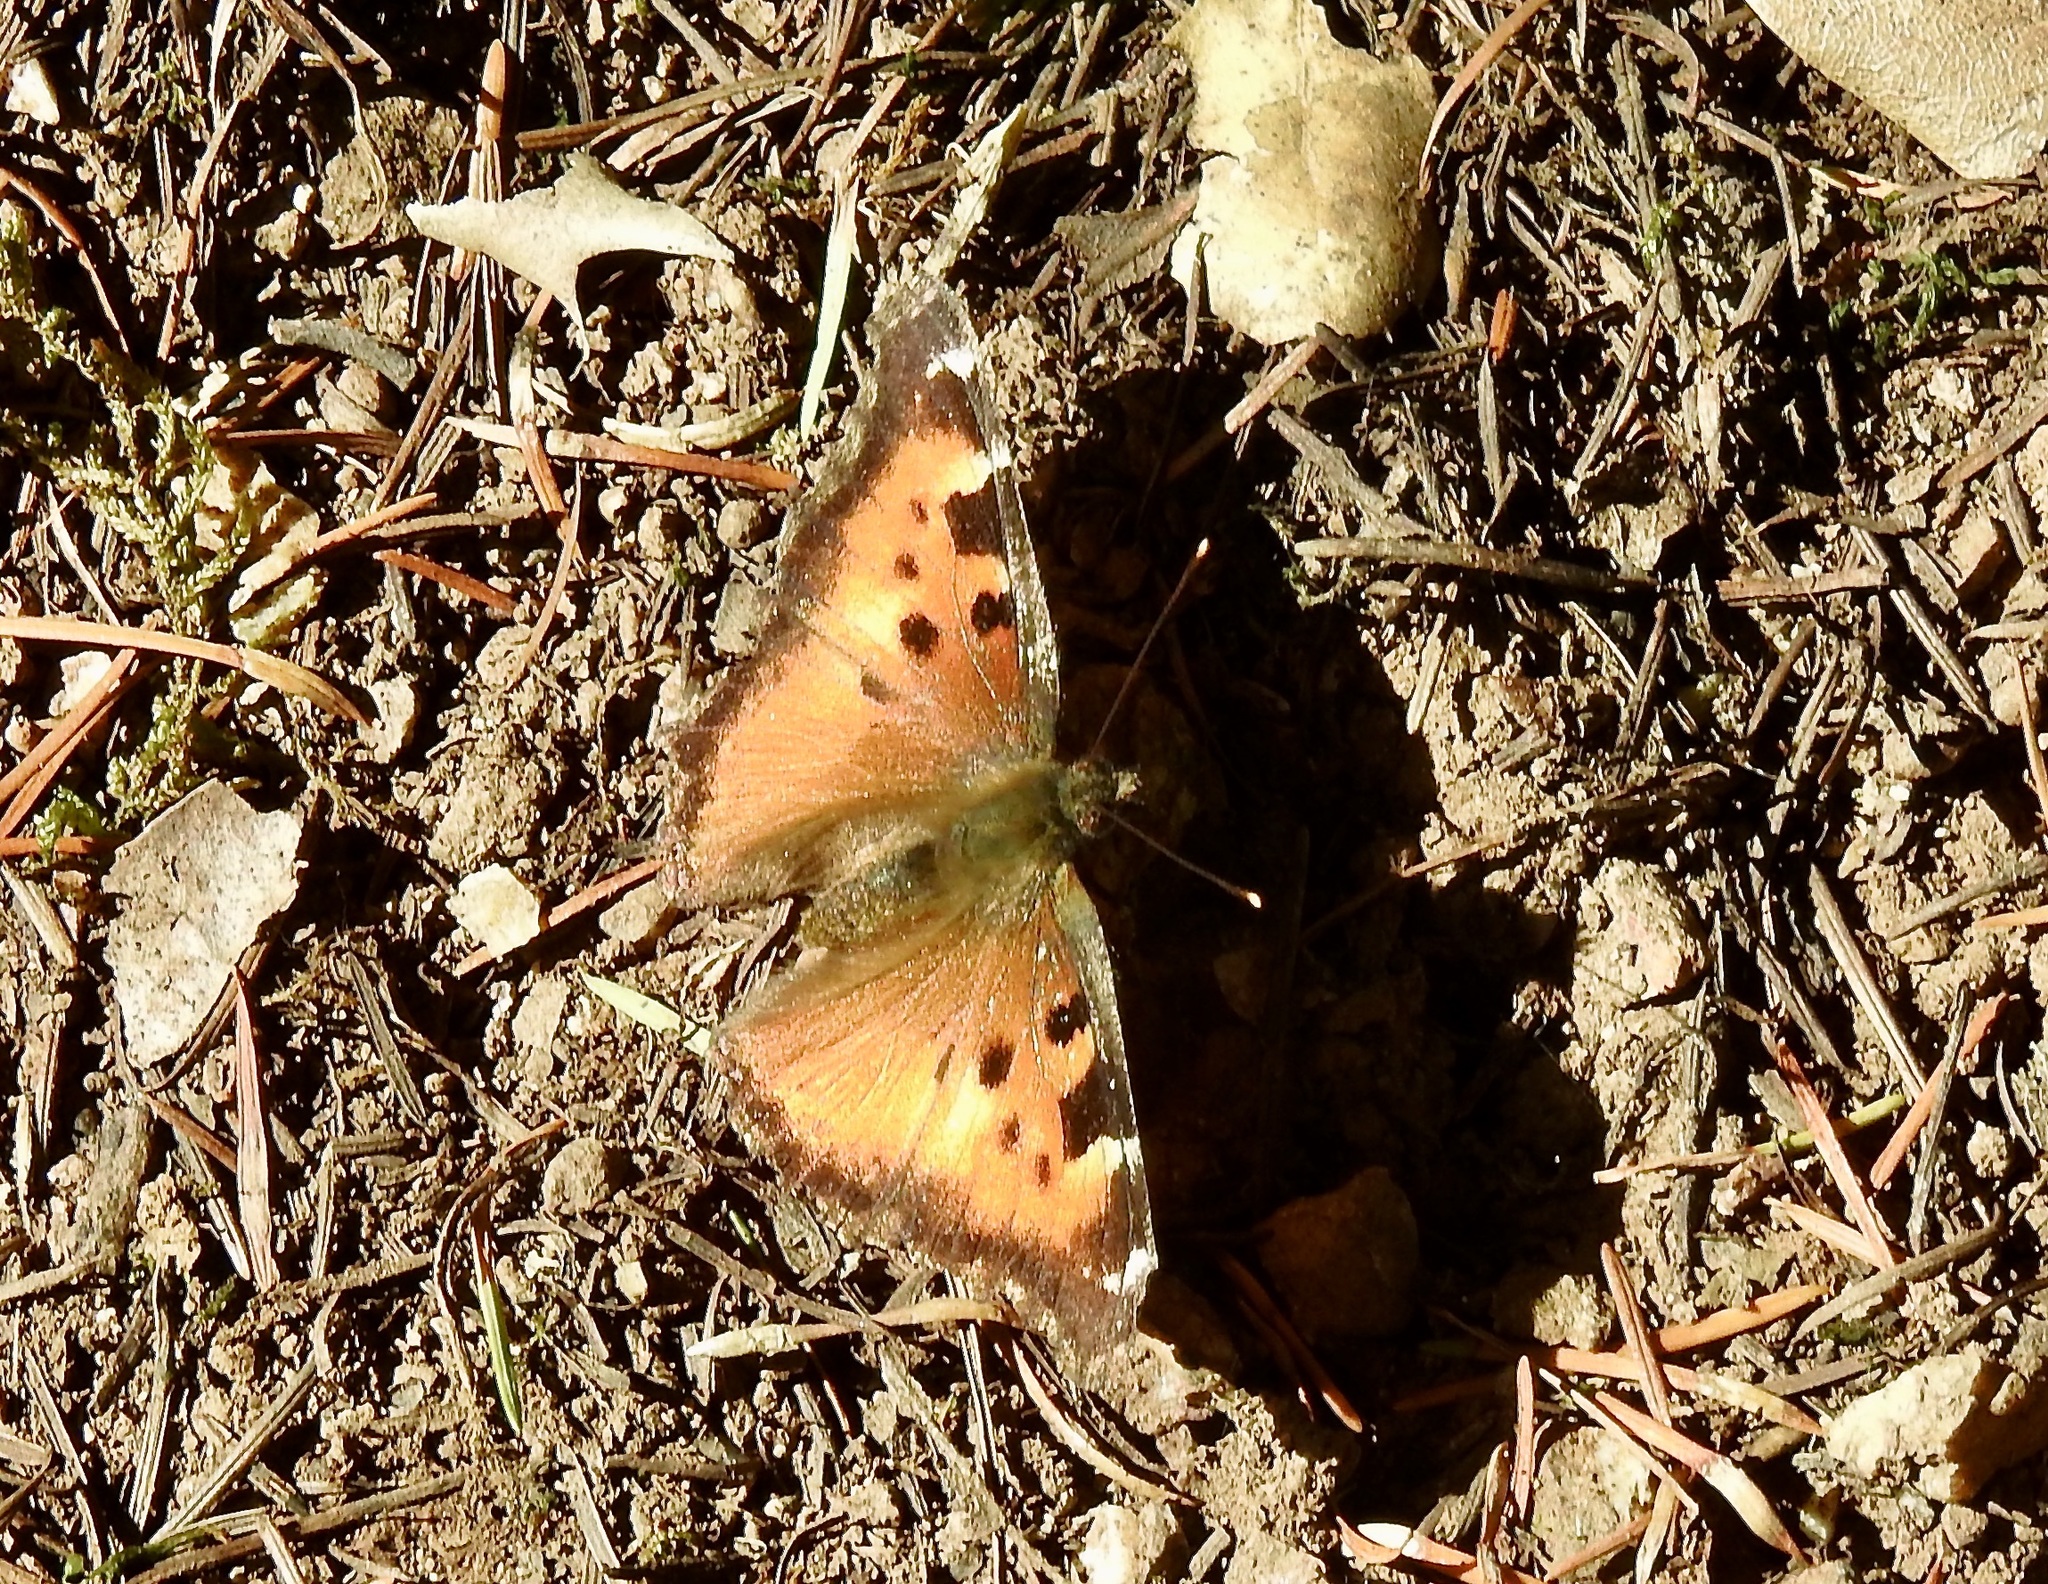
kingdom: Animalia
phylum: Arthropoda
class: Insecta
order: Lepidoptera
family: Nymphalidae
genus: Nymphalis
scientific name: Nymphalis californica
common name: California tortoiseshell
